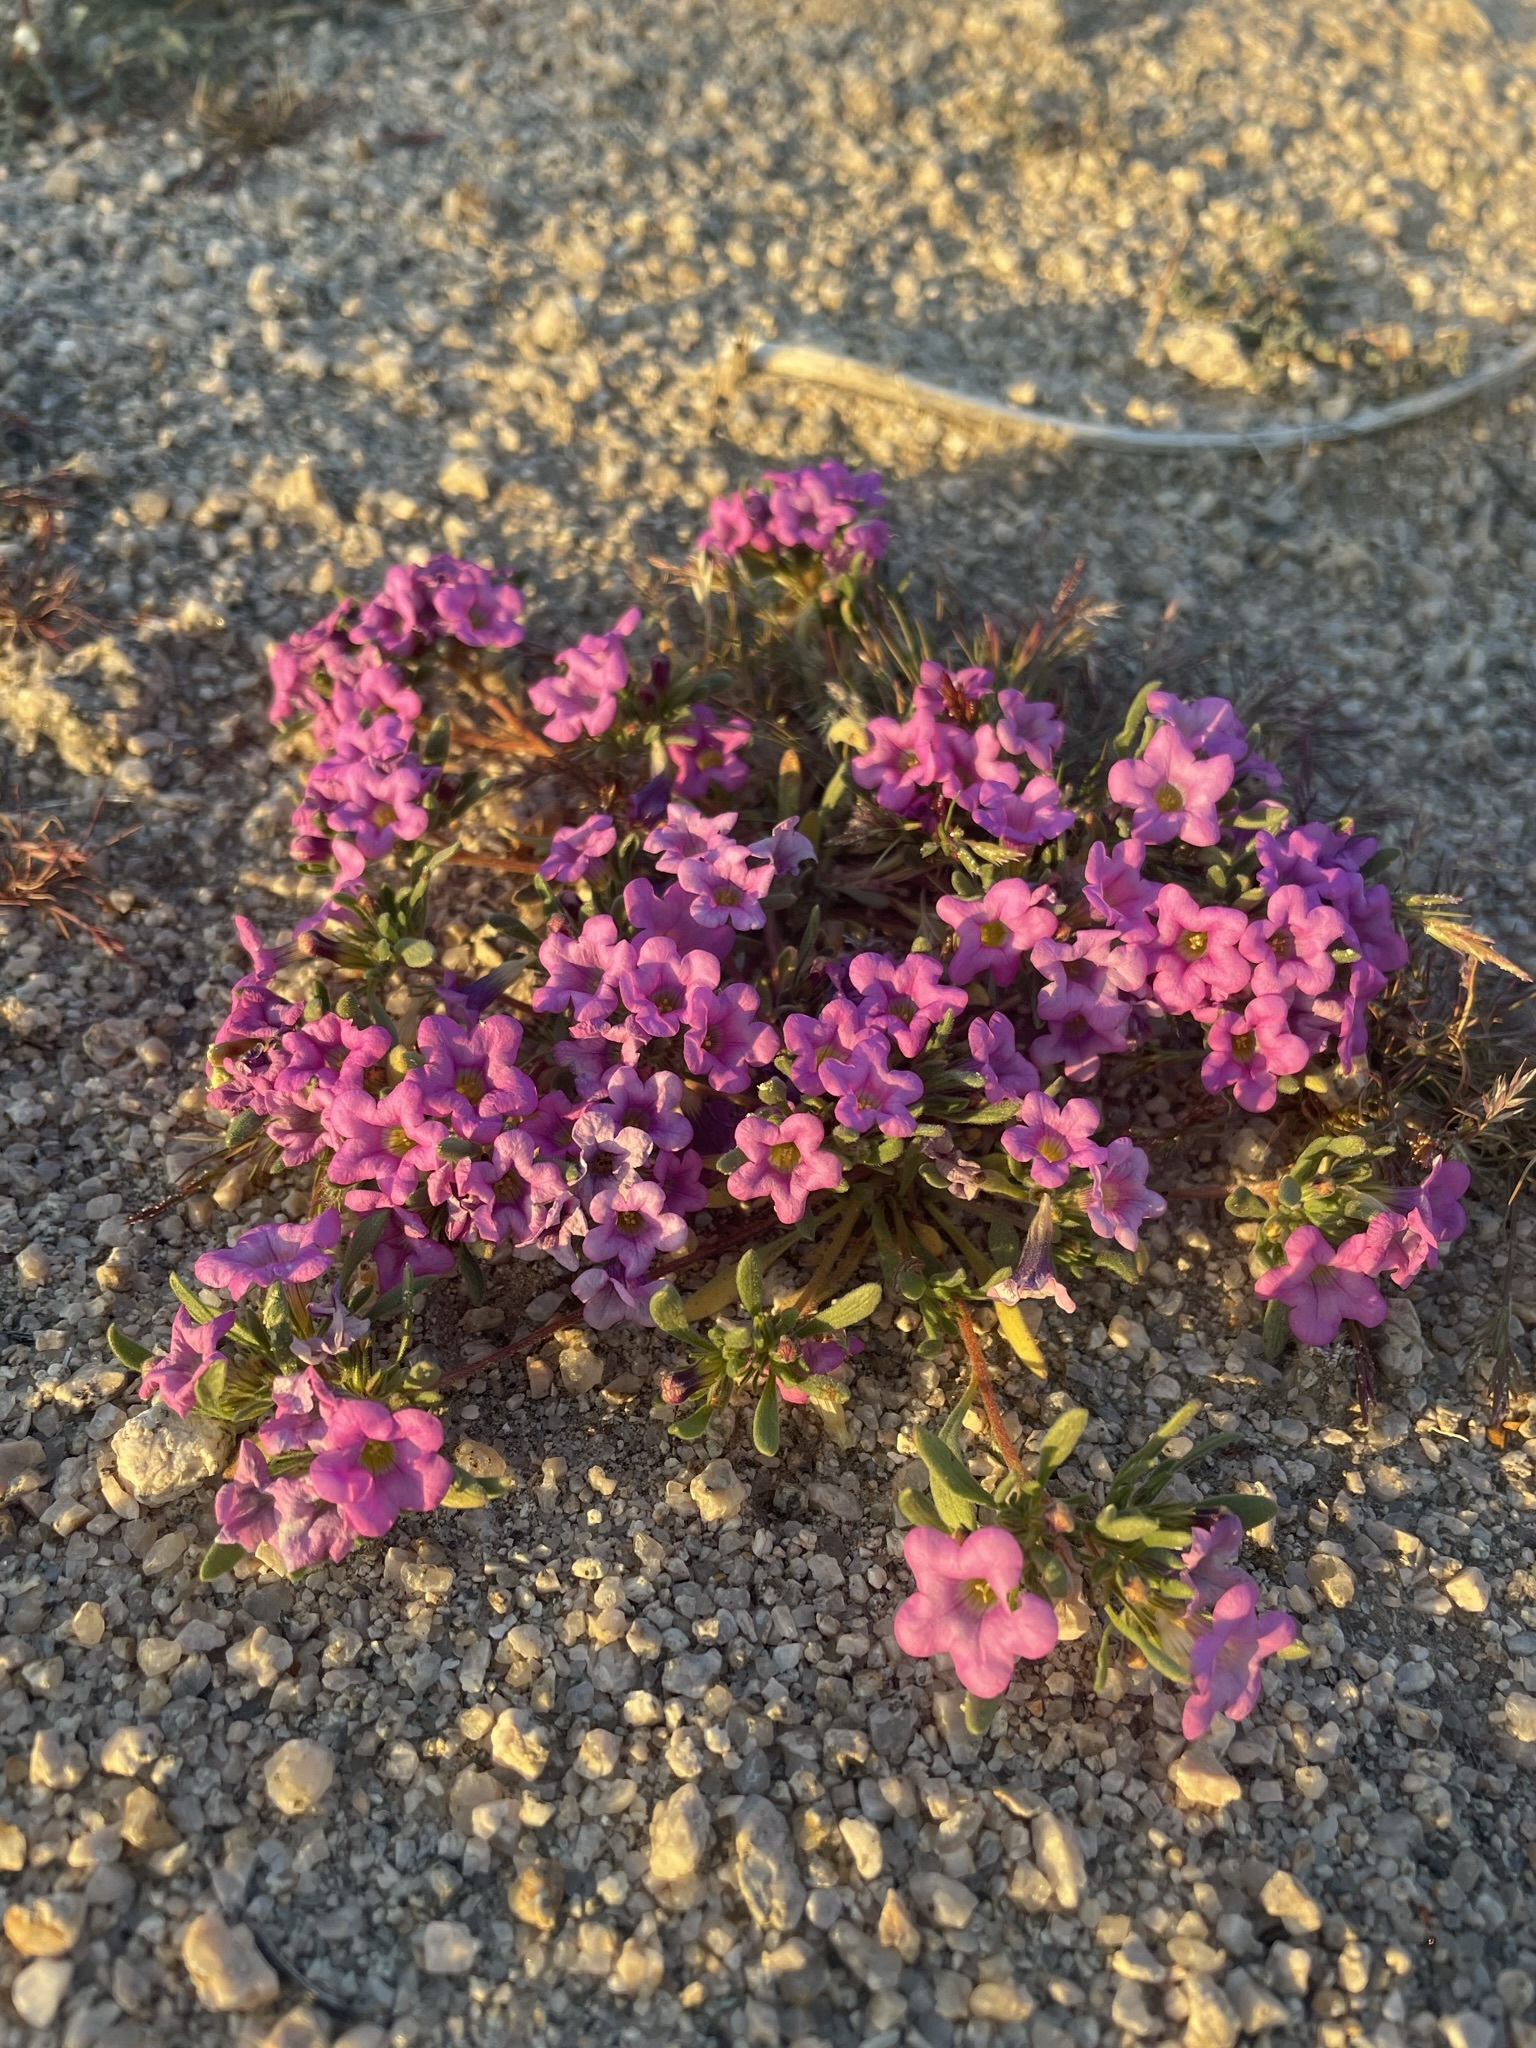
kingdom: Plantae
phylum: Tracheophyta
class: Magnoliopsida
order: Boraginales
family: Namaceae
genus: Nama
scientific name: Nama demissa
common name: Leafy nama
